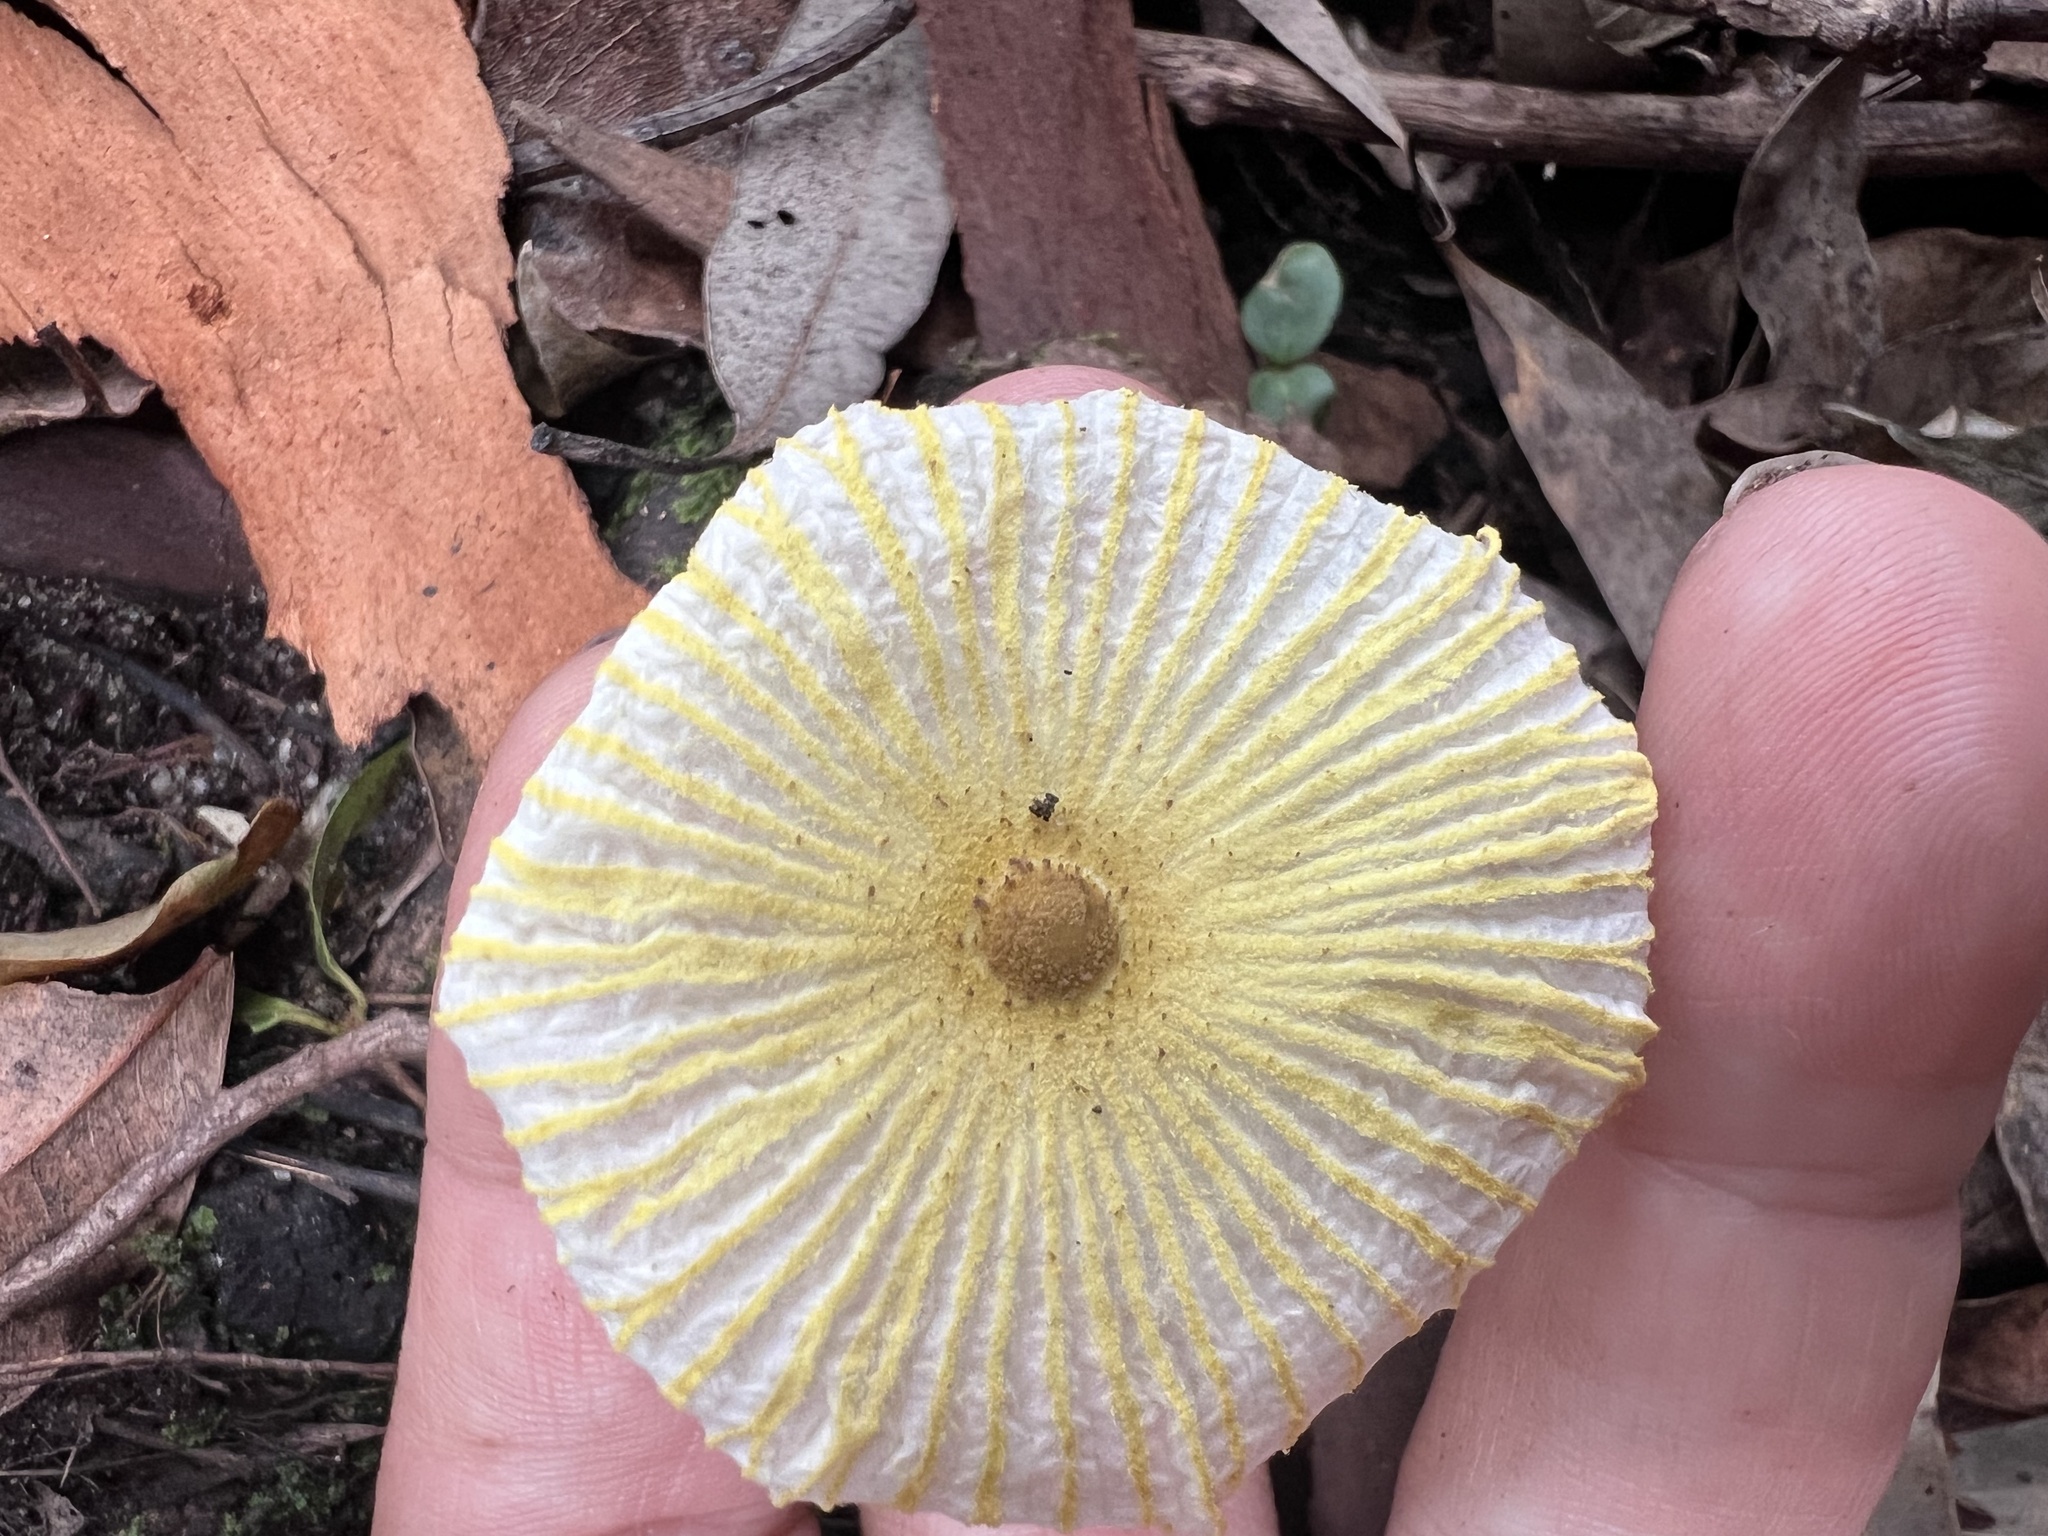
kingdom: Fungi
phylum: Basidiomycota
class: Agaricomycetes
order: Agaricales
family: Agaricaceae
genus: Leucocoprinus
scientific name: Leucocoprinus fragilissimus
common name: Fragile dapperling
